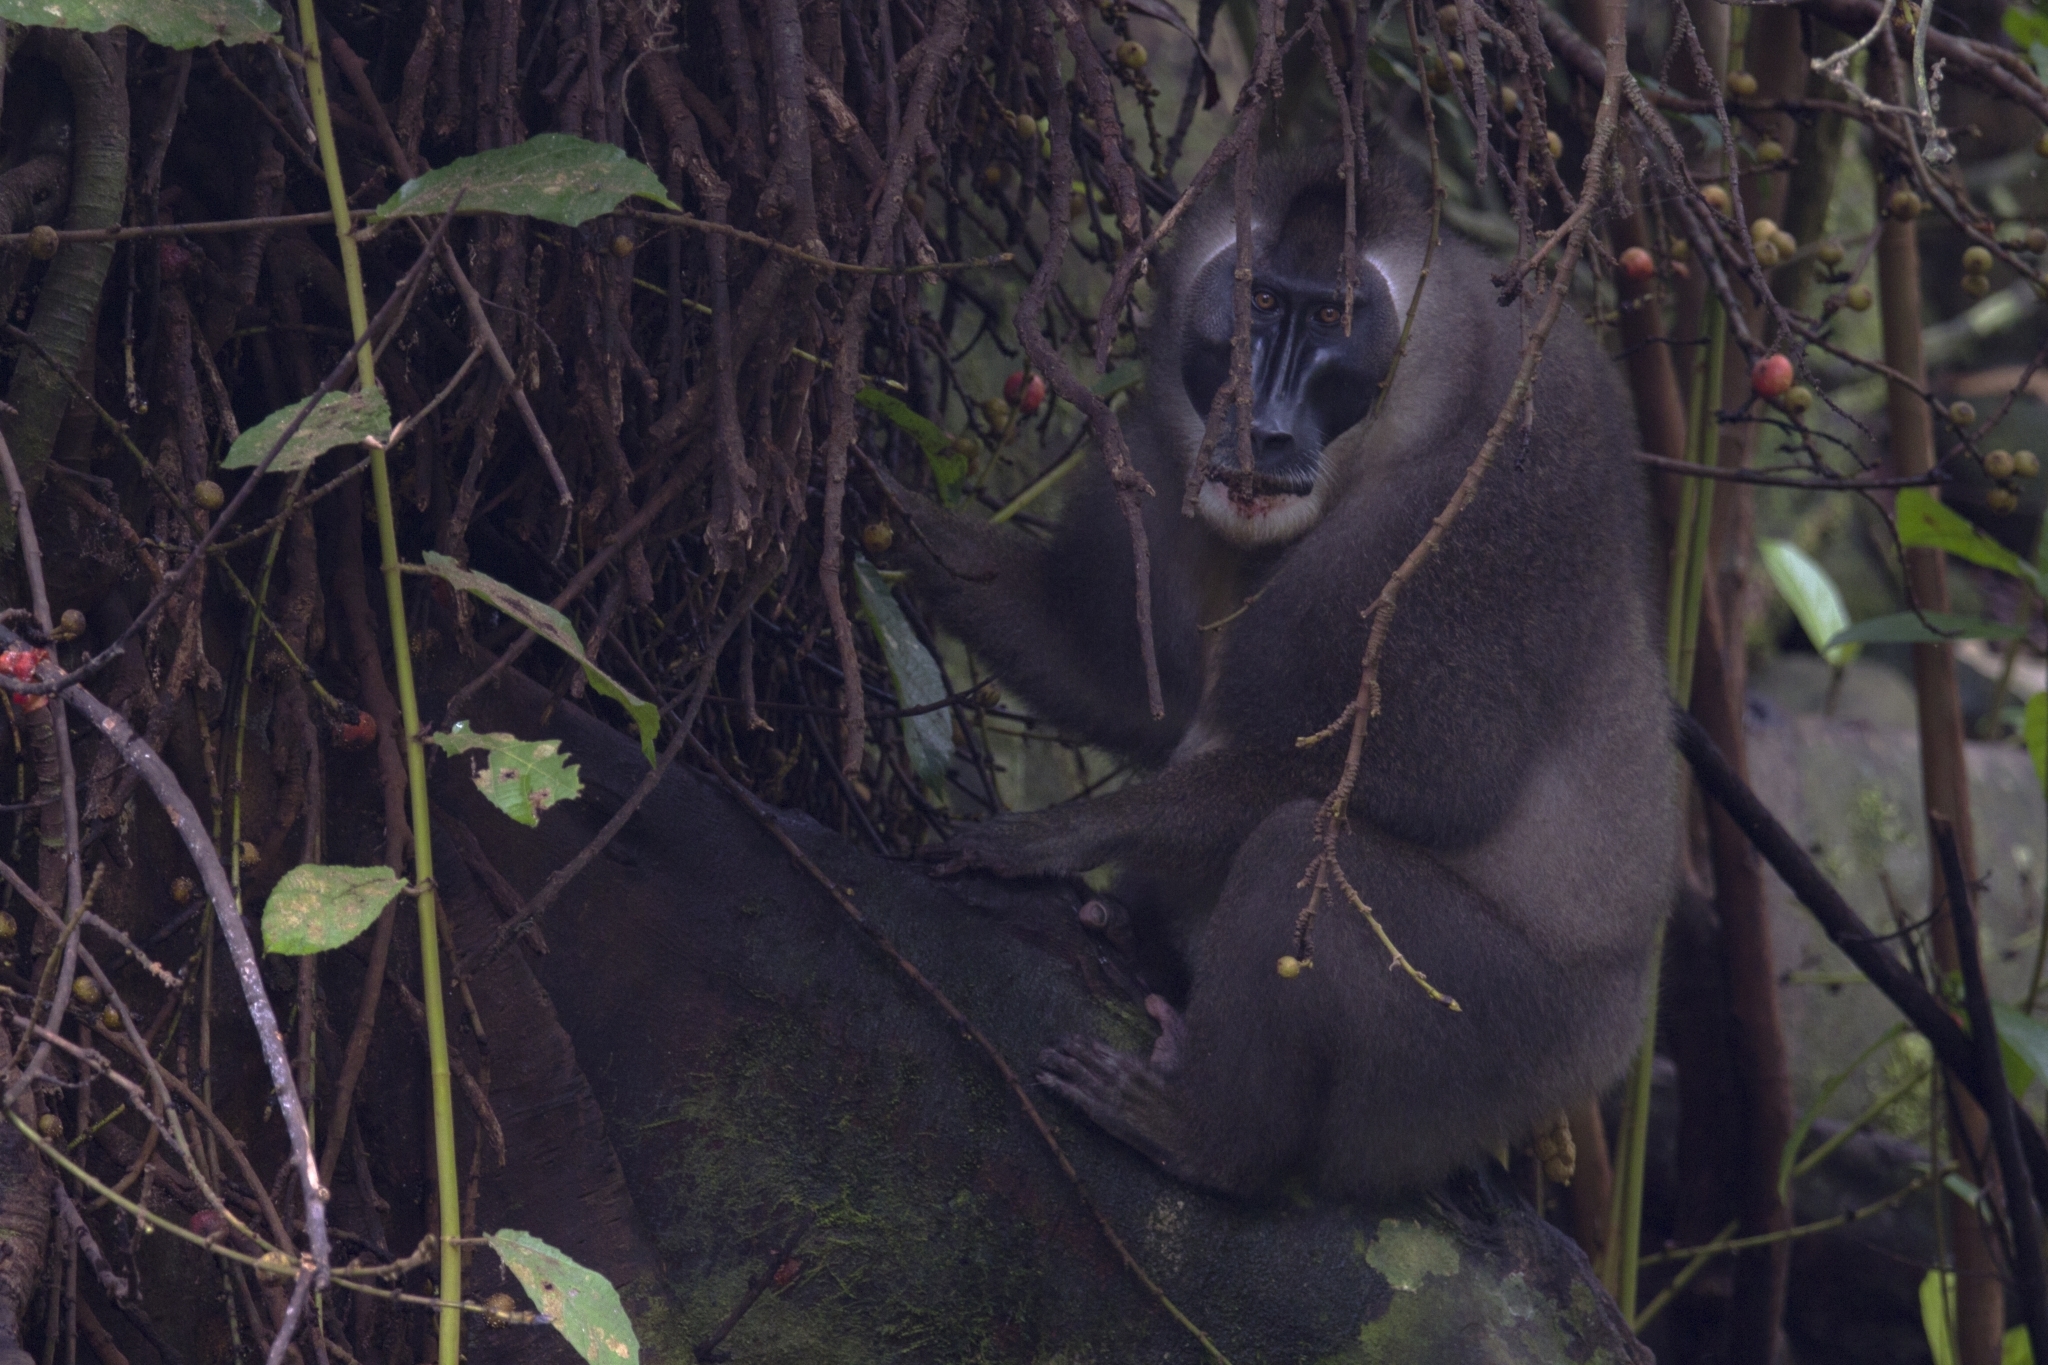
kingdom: Animalia
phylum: Chordata
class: Mammalia
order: Primates
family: Cercopithecidae
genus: Mandrillus
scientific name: Mandrillus leucophaeus
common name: Drill
